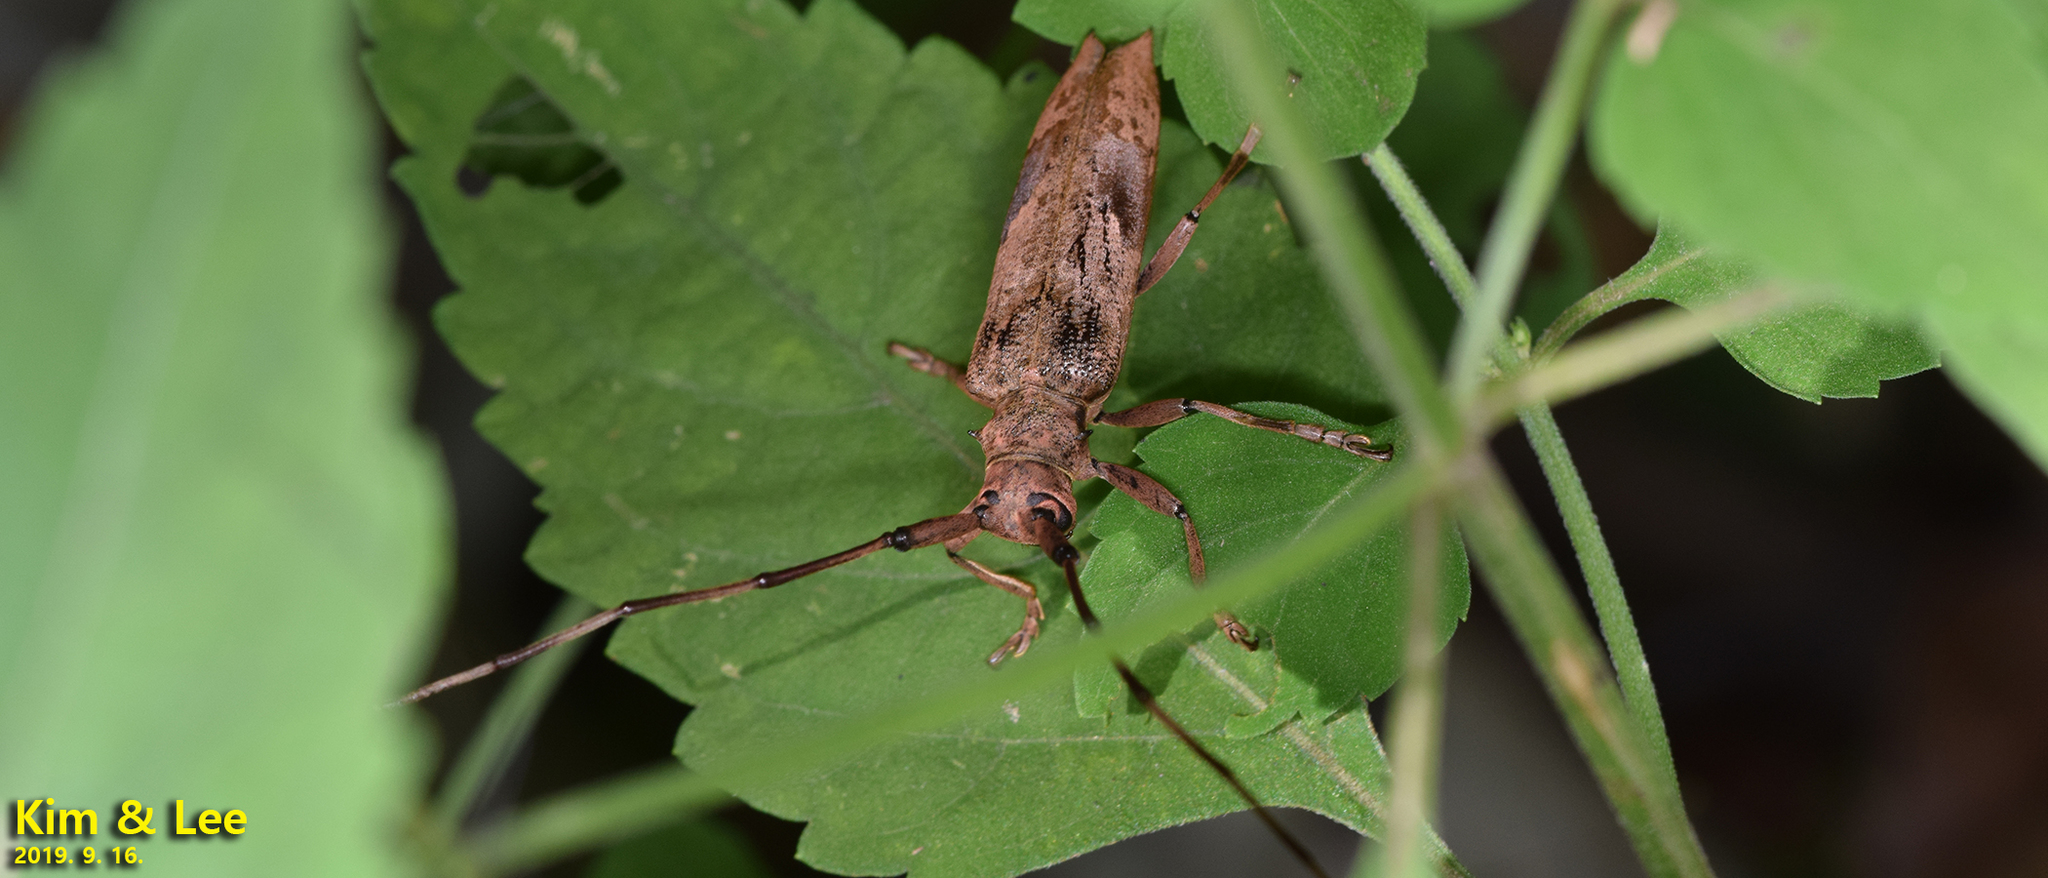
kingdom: Animalia
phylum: Arthropoda
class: Insecta
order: Coleoptera
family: Cerambycidae
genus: Uraecha
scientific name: Uraecha bimaculata
